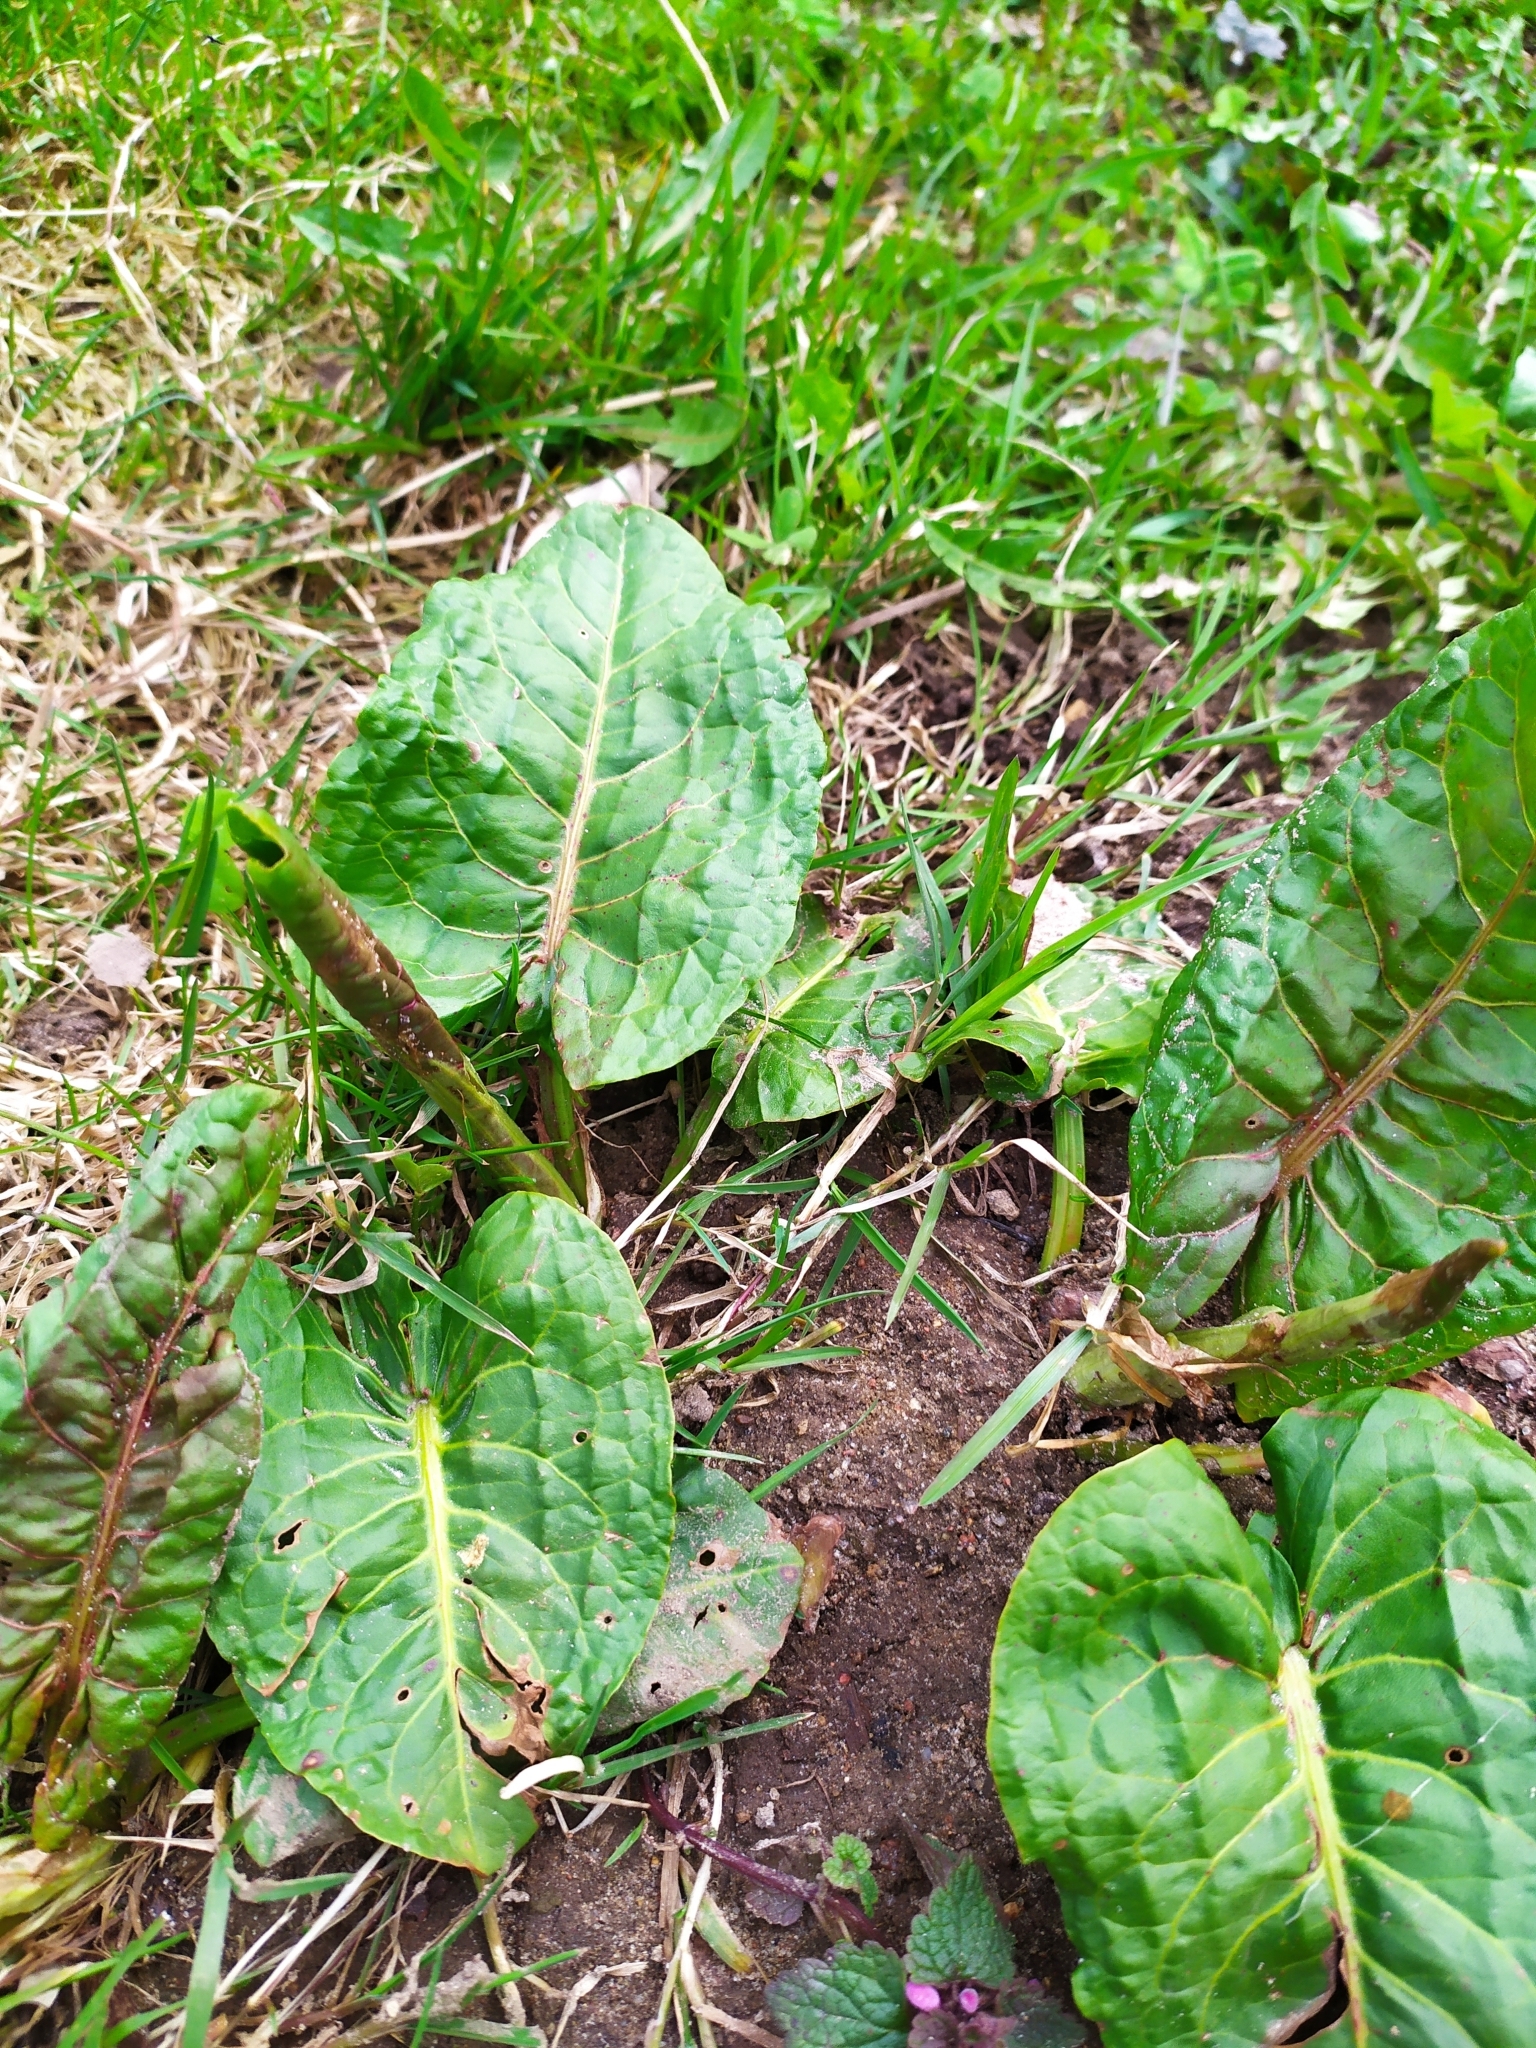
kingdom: Plantae
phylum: Tracheophyta
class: Magnoliopsida
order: Caryophyllales
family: Polygonaceae
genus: Rumex
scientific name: Rumex obtusifolius
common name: Bitter dock
